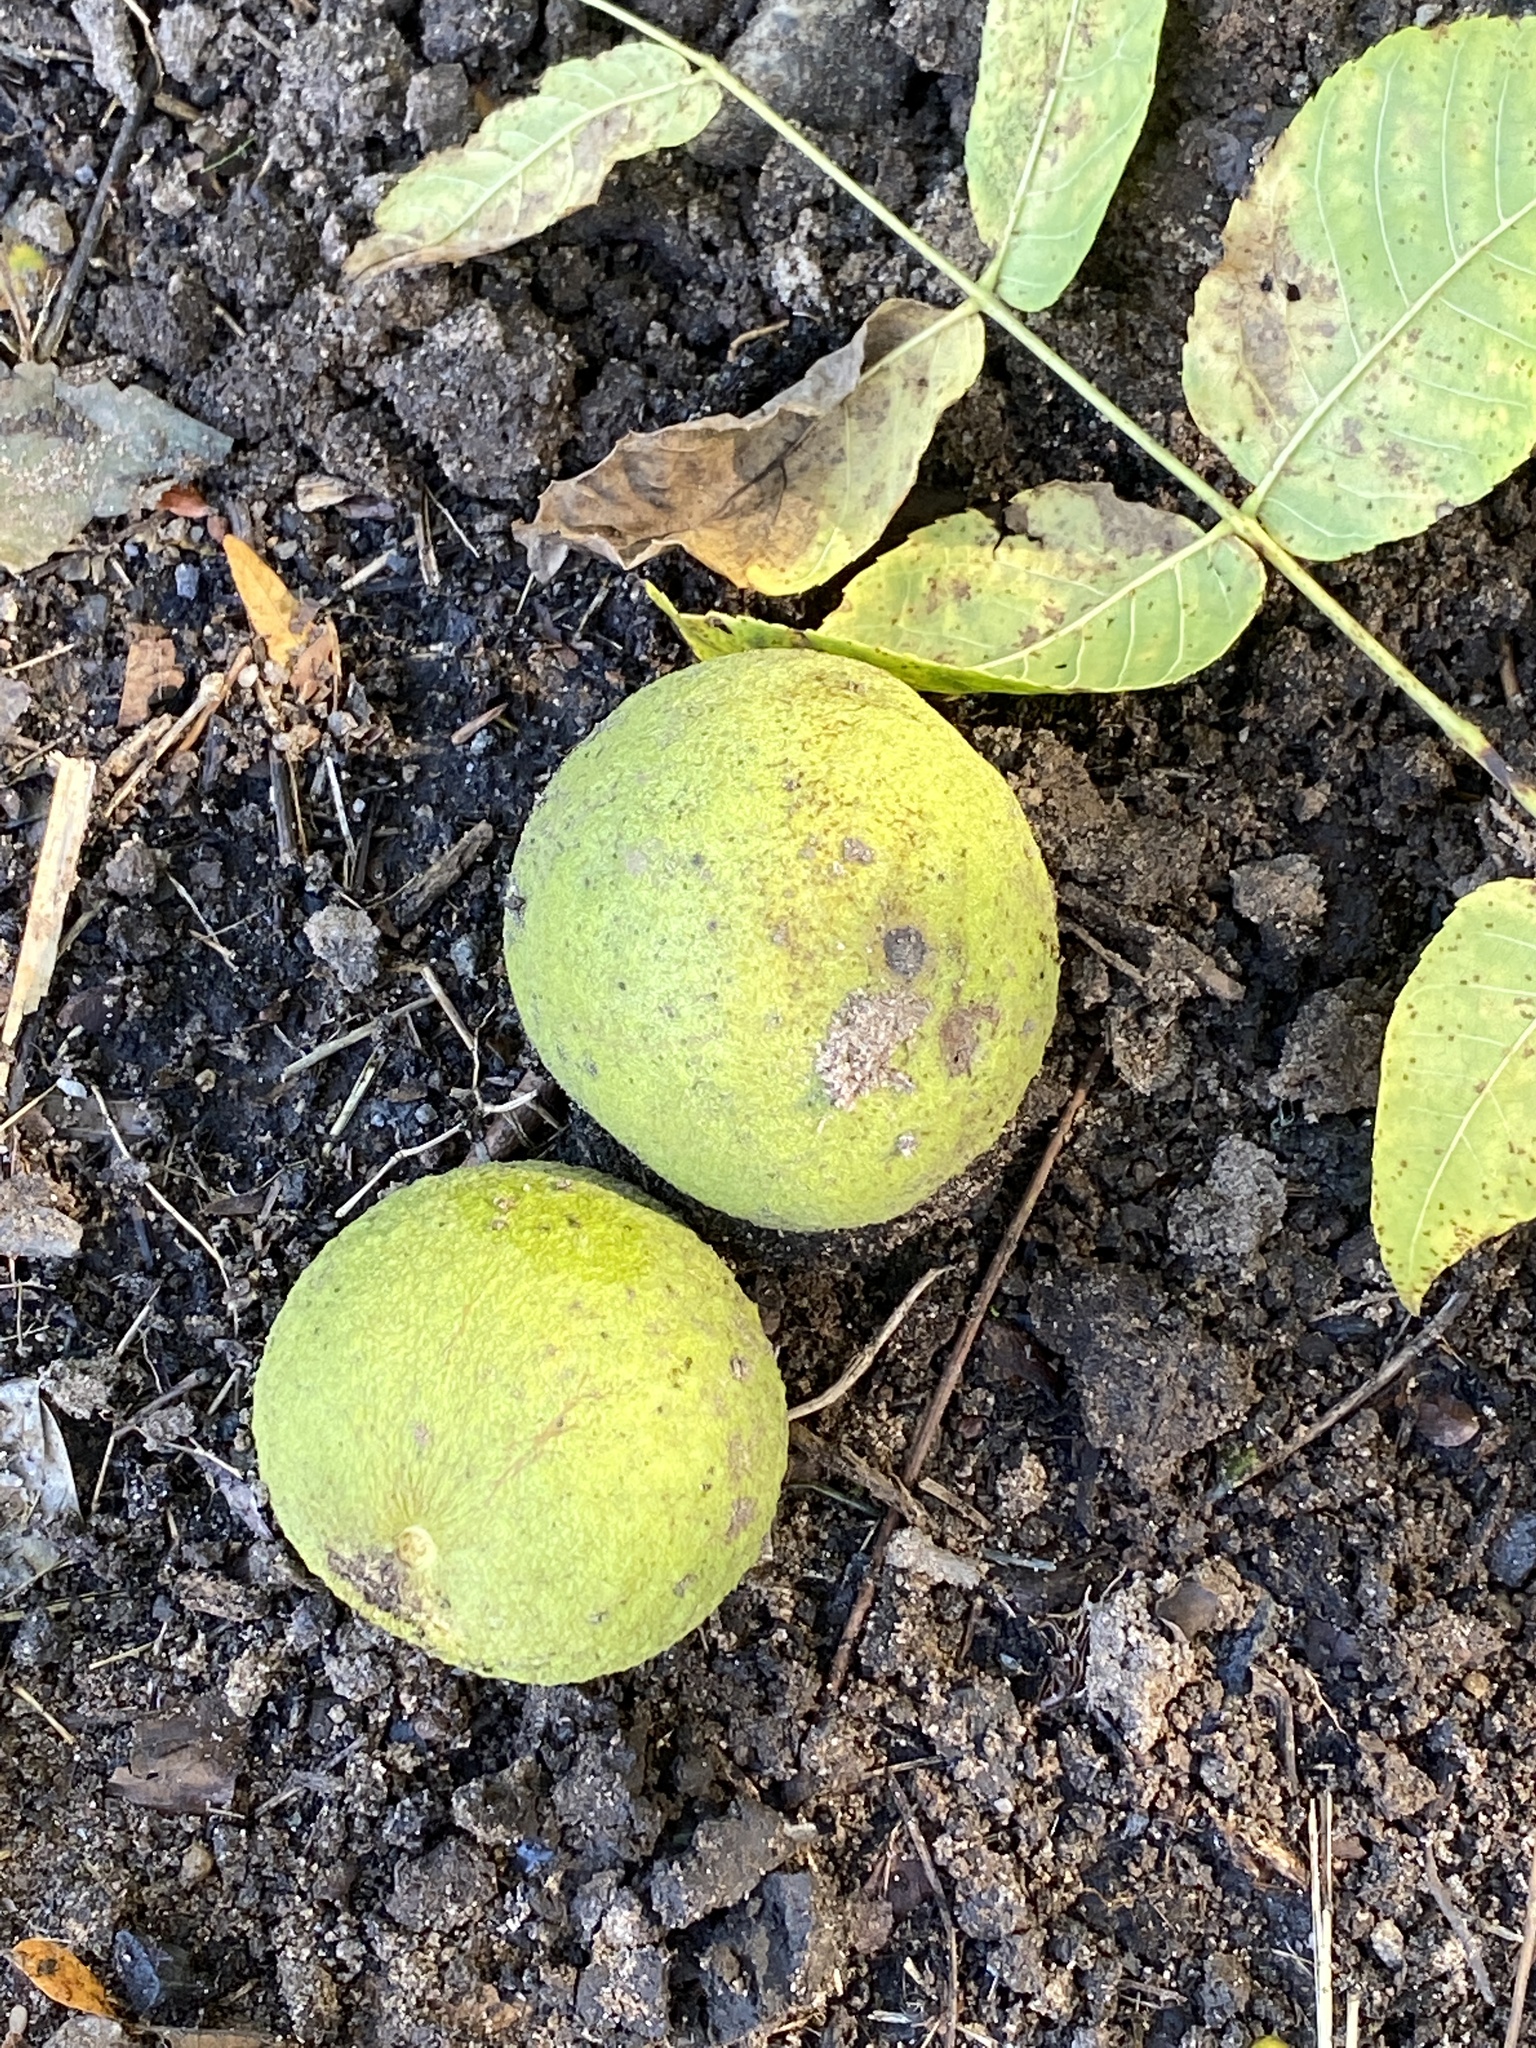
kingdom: Plantae
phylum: Tracheophyta
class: Magnoliopsida
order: Fagales
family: Juglandaceae
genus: Juglans
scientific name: Juglans nigra
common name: Black walnut
